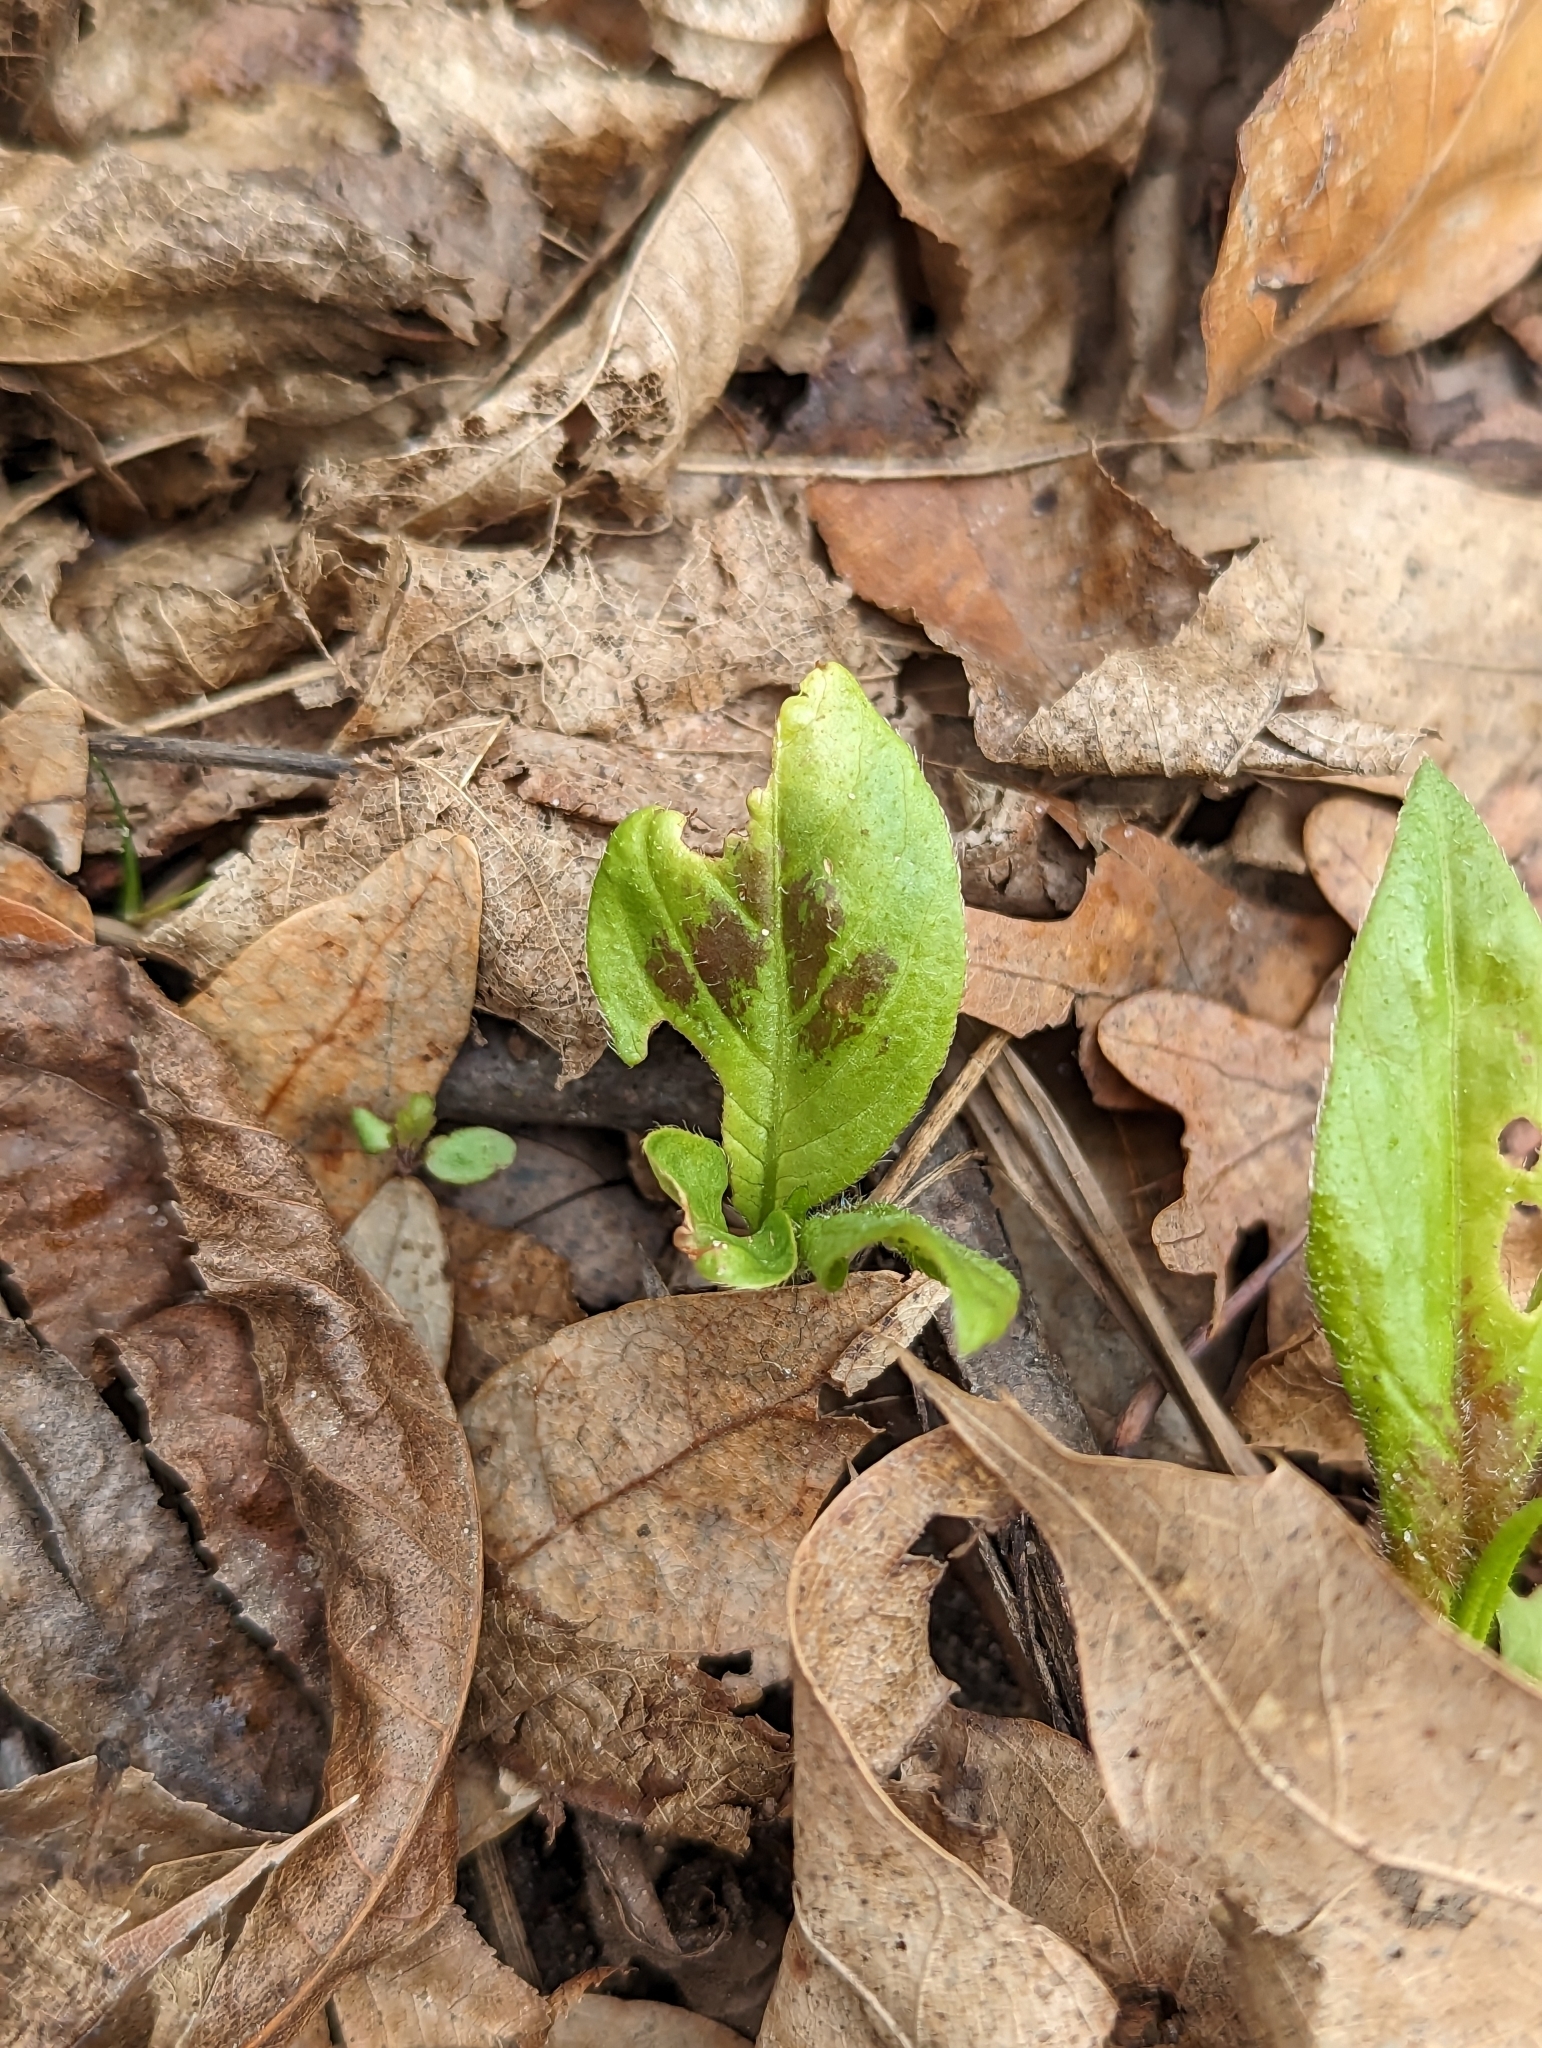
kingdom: Plantae
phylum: Tracheophyta
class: Magnoliopsida
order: Caryophyllales
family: Polygonaceae
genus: Persicaria
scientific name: Persicaria virginiana
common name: Jumpseed
